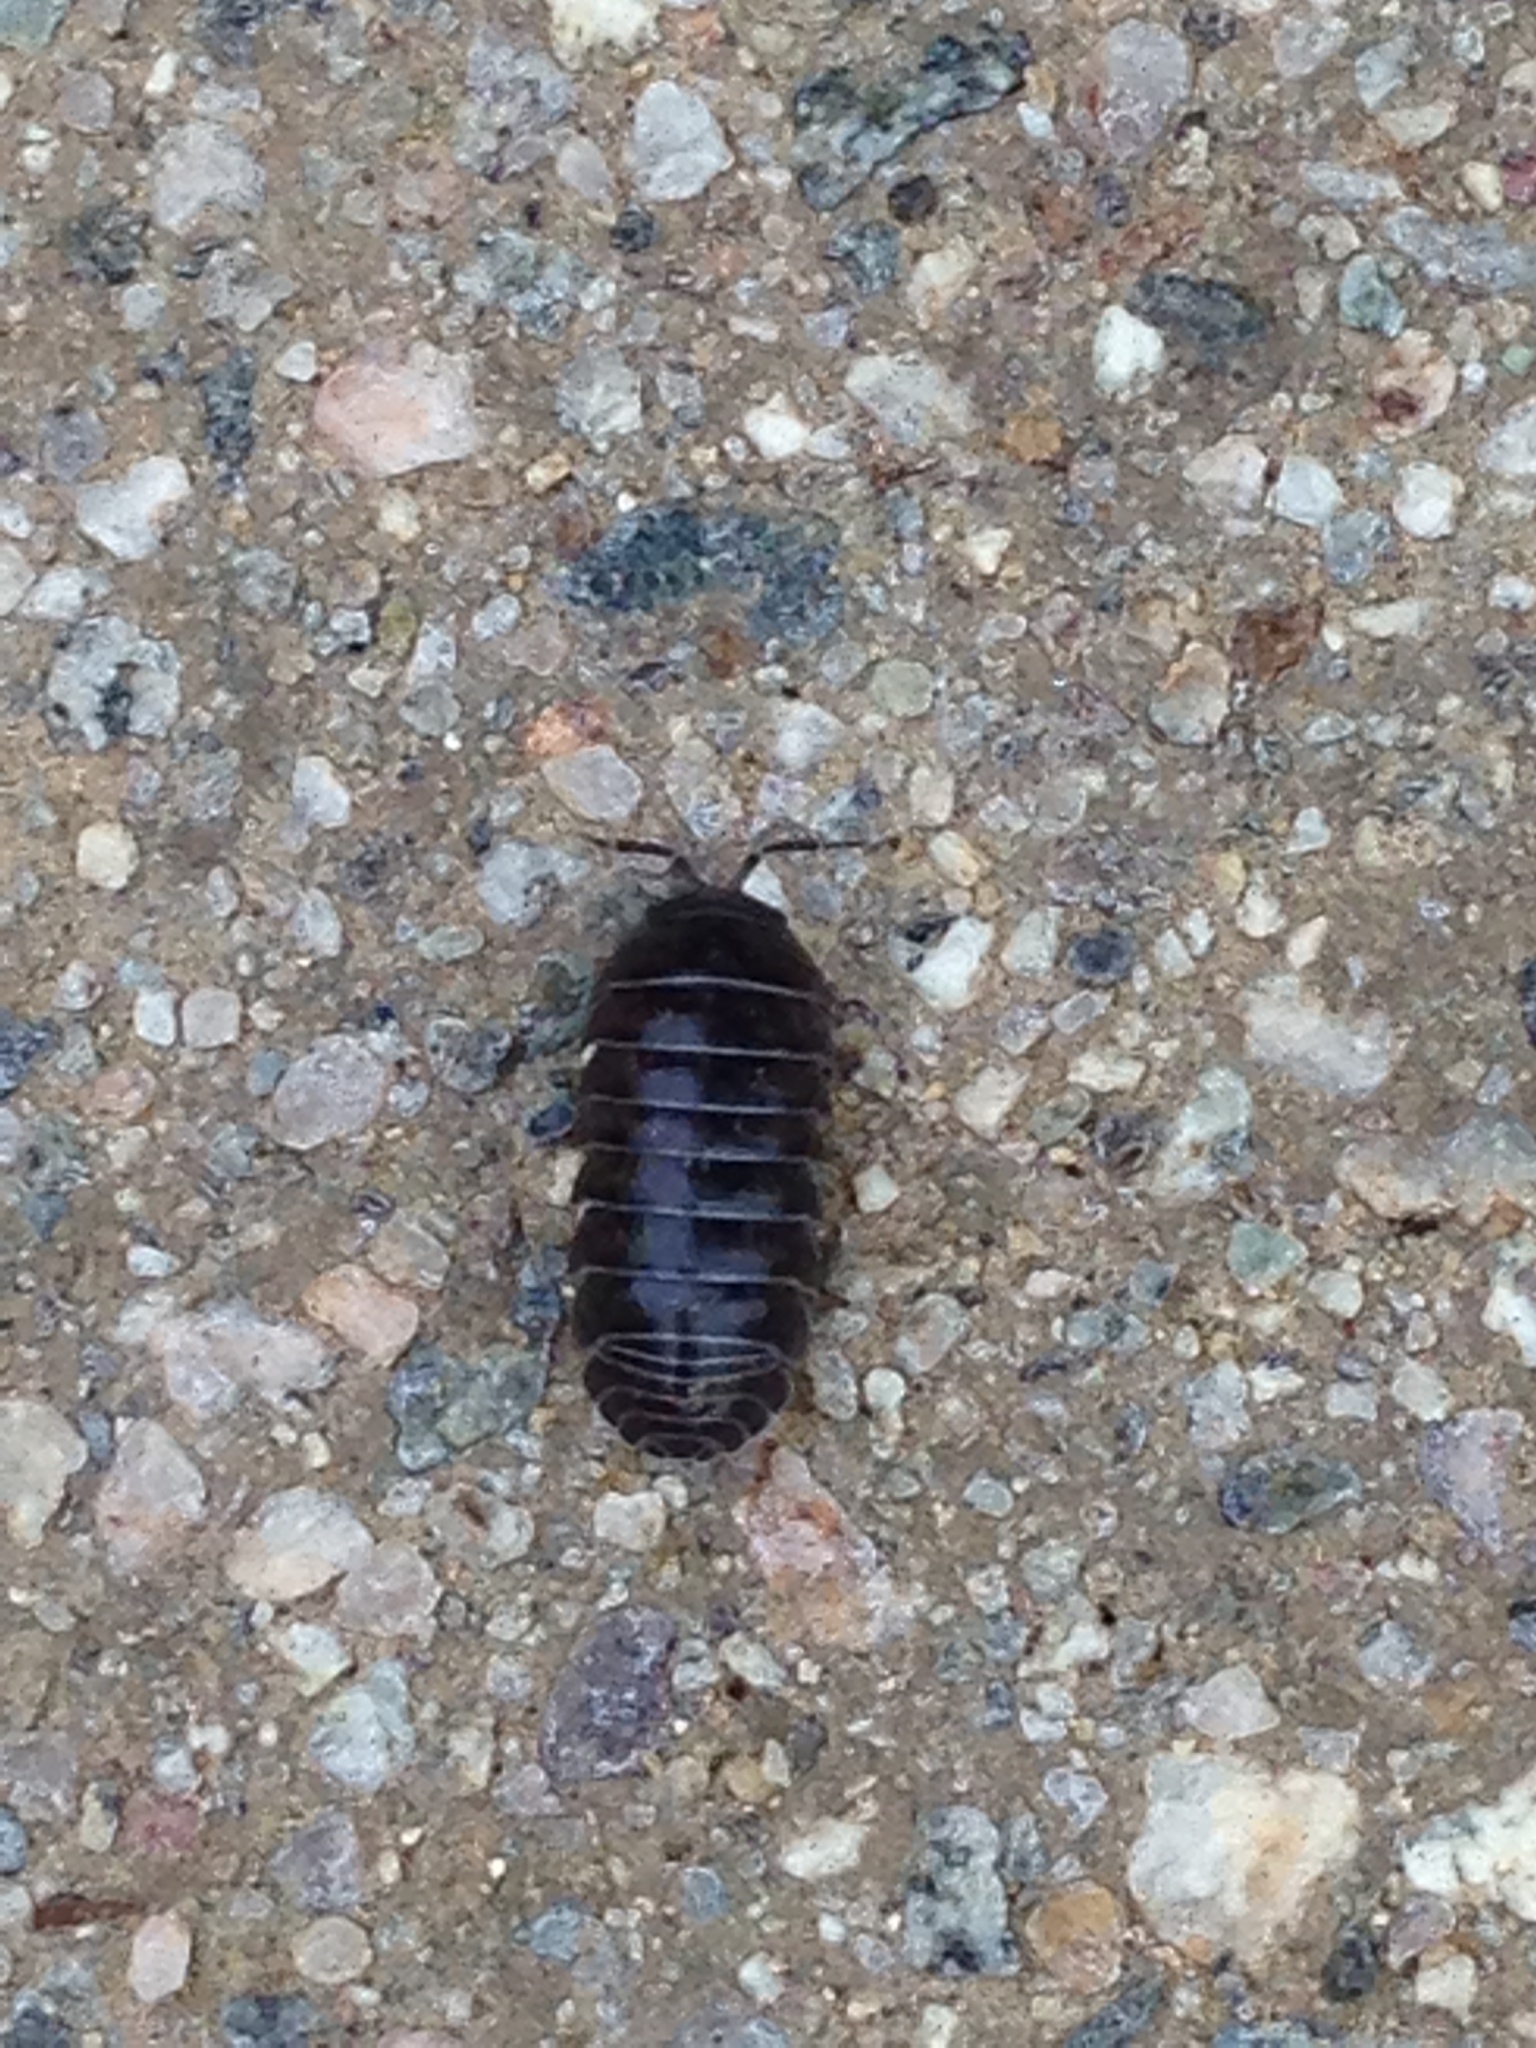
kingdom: Animalia
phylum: Arthropoda
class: Malacostraca
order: Isopoda
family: Armadillidiidae
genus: Armadillidium
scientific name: Armadillidium vulgare
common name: Common pill woodlouse
